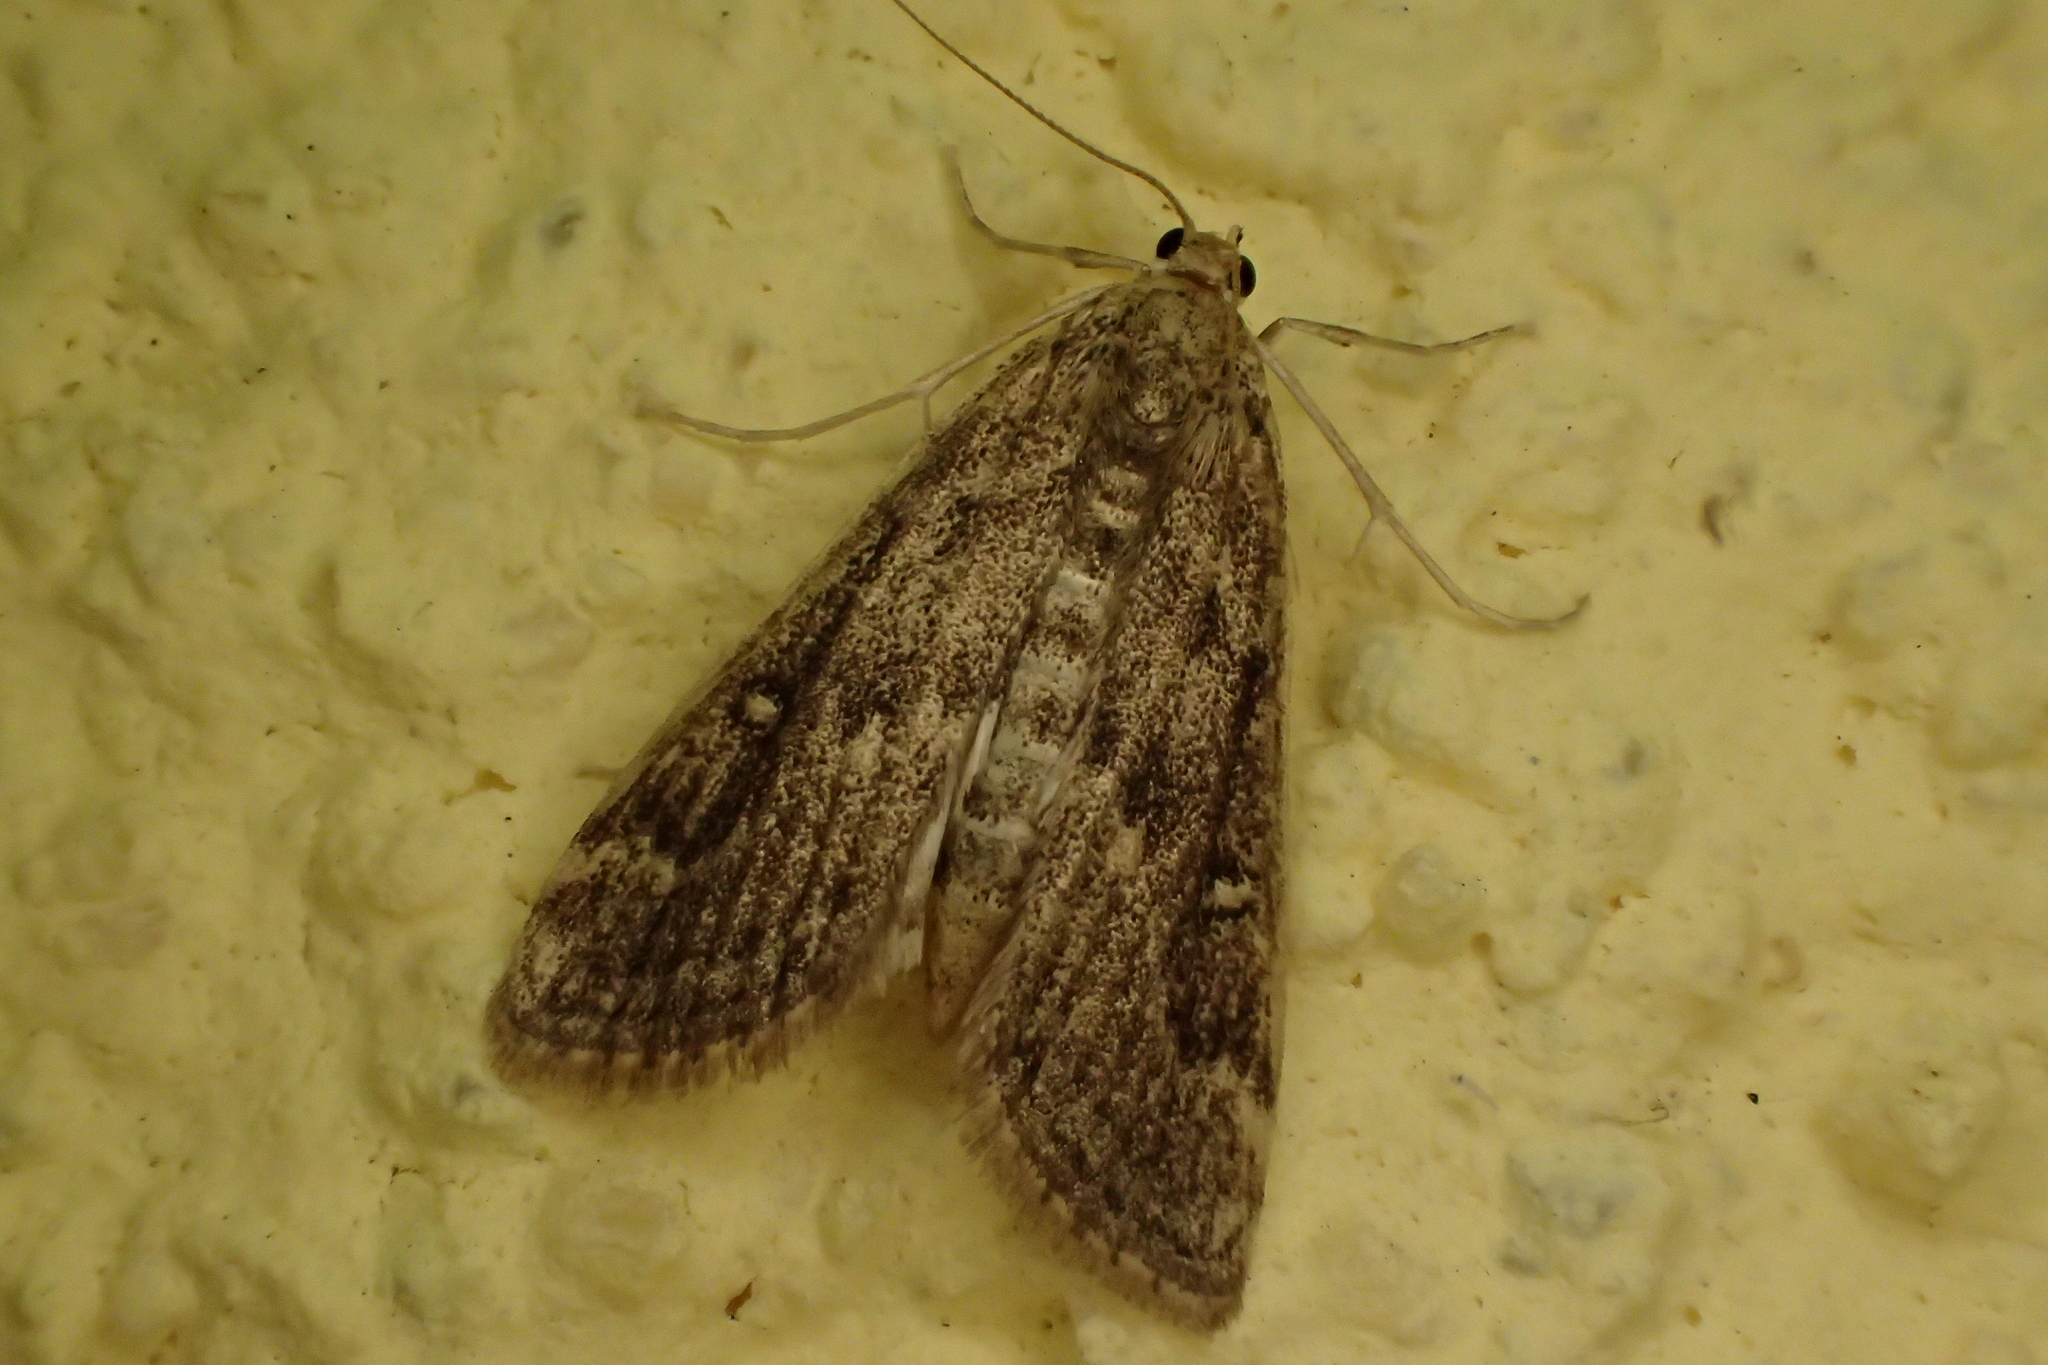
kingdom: Animalia
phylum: Arthropoda
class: Insecta
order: Lepidoptera
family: Crambidae
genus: Parapoynx
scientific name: Parapoynx stratiotata
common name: Ringed china-mark
